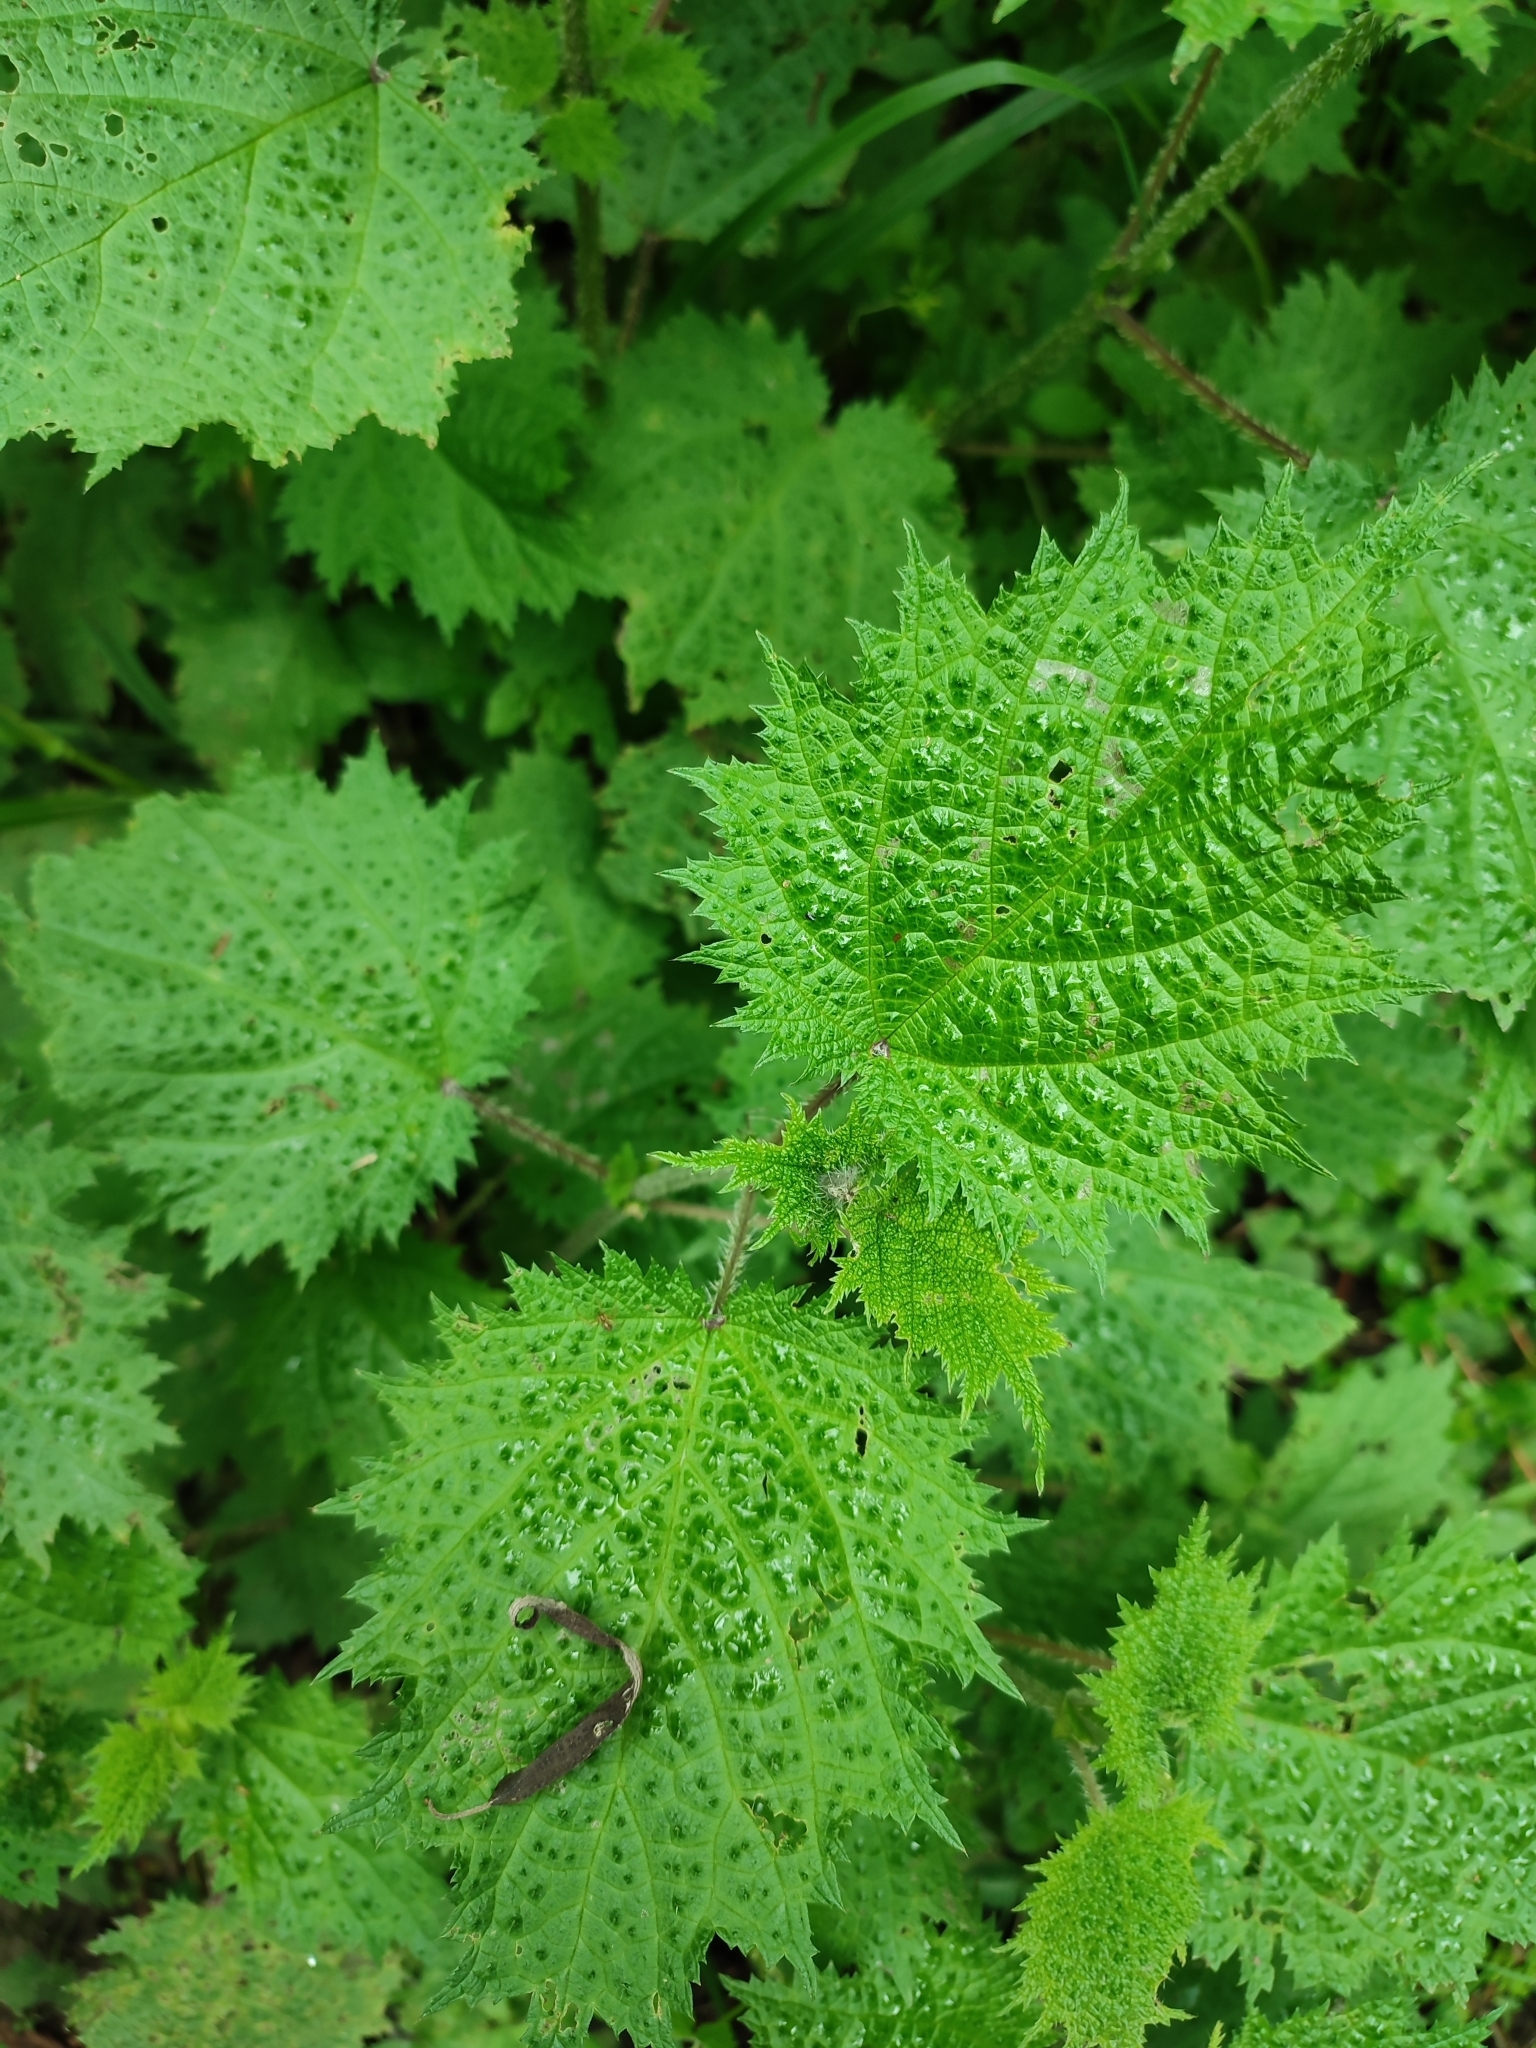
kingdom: Plantae
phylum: Tracheophyta
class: Magnoliopsida
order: Rosales
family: Urticaceae
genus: Urtica
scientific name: Urtica thunbergiana
